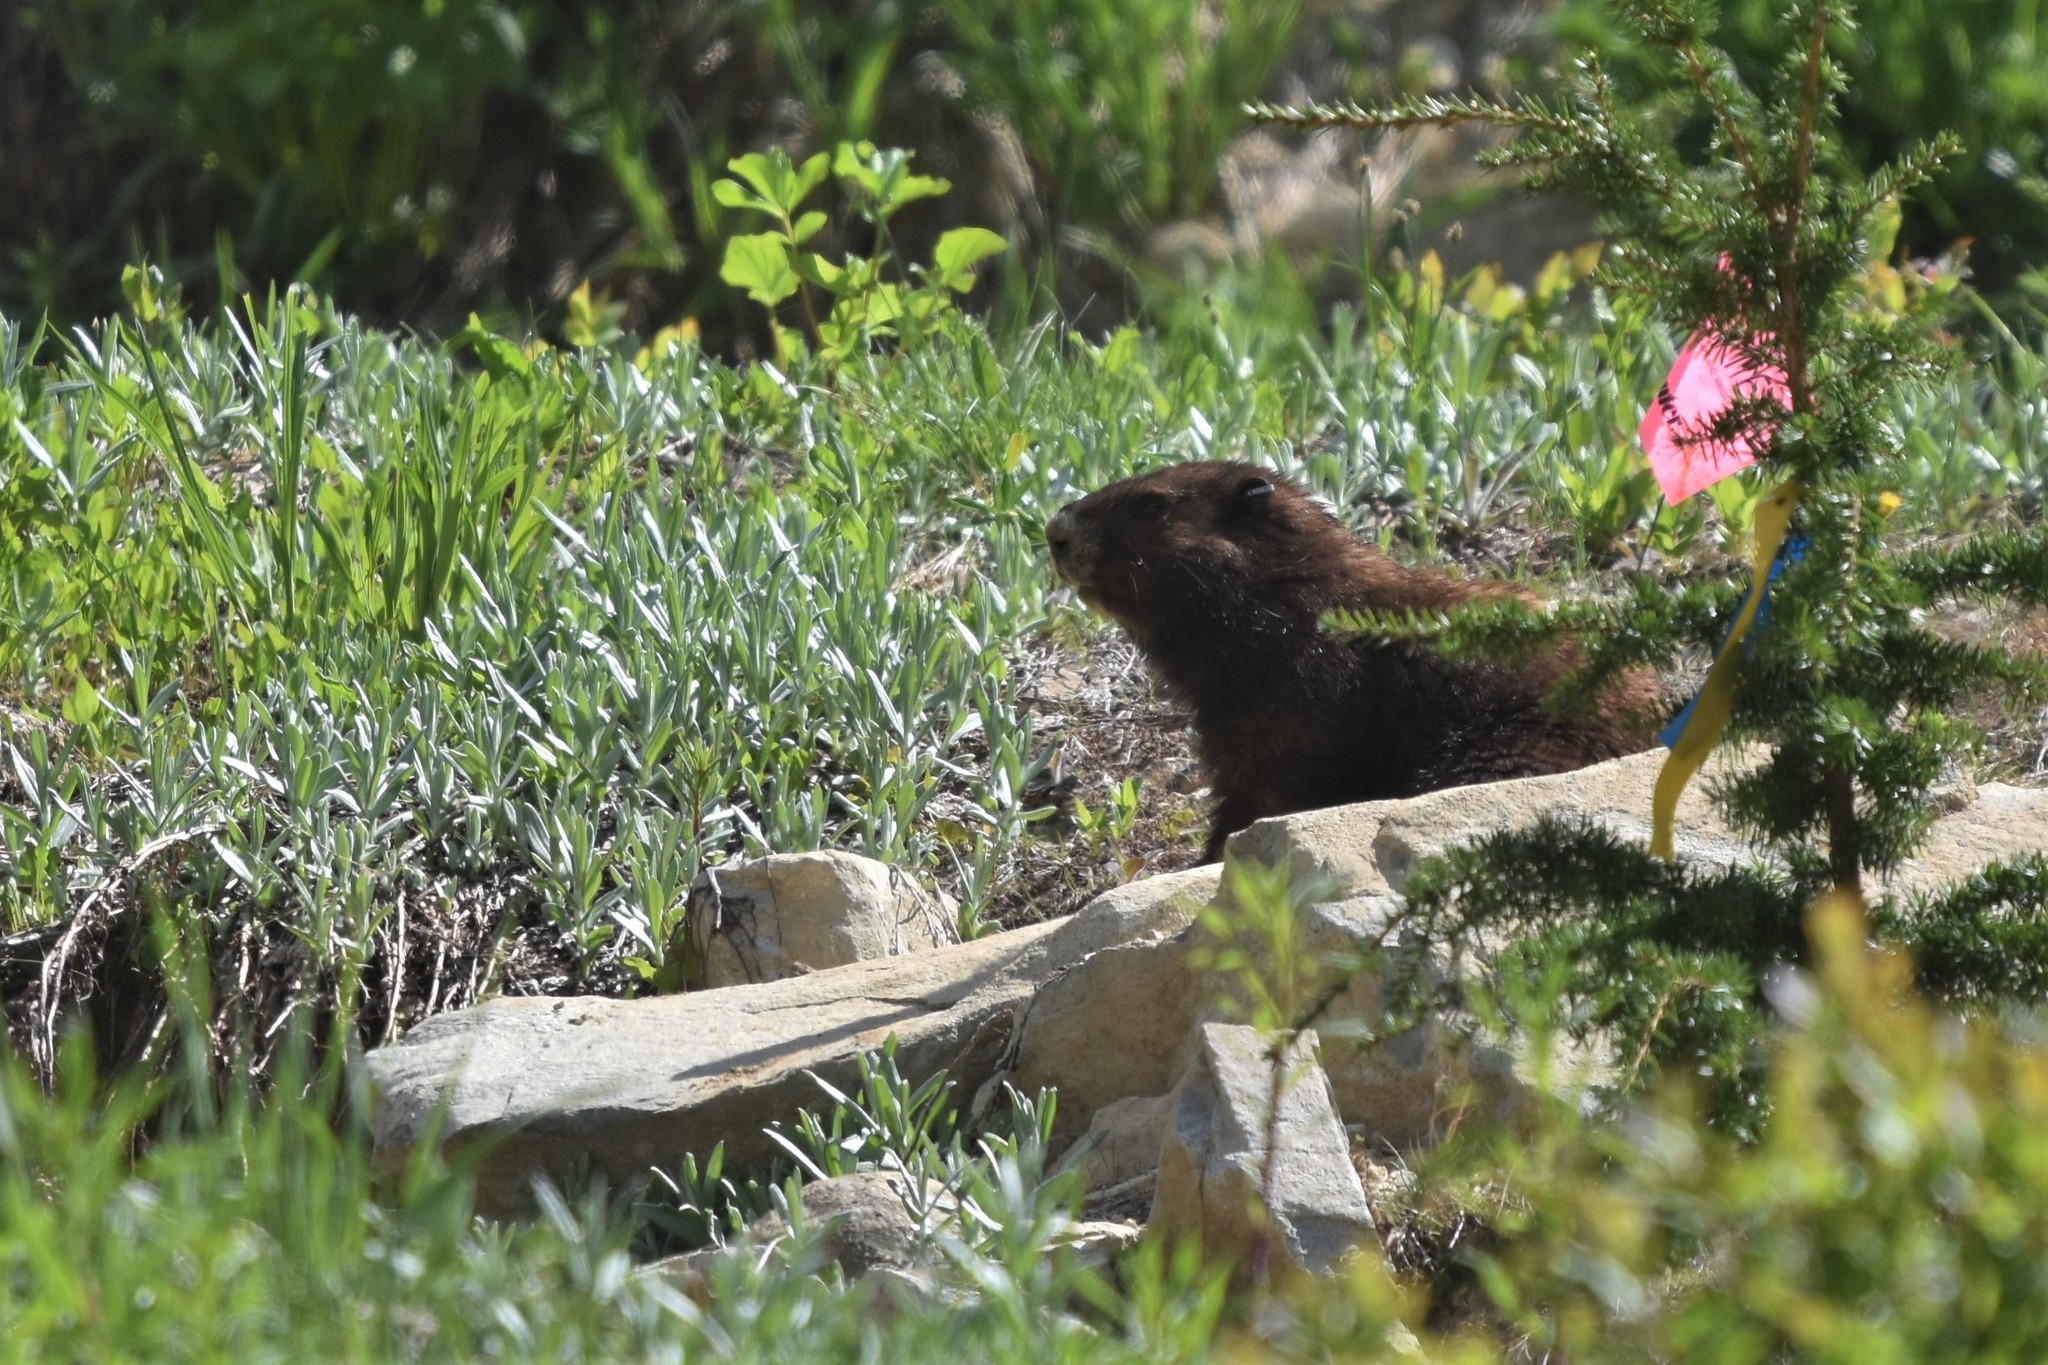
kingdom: Animalia
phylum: Chordata
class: Mammalia
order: Rodentia
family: Sciuridae
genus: Marmota
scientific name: Marmota vancouverensis
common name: Vancouver island marmot
